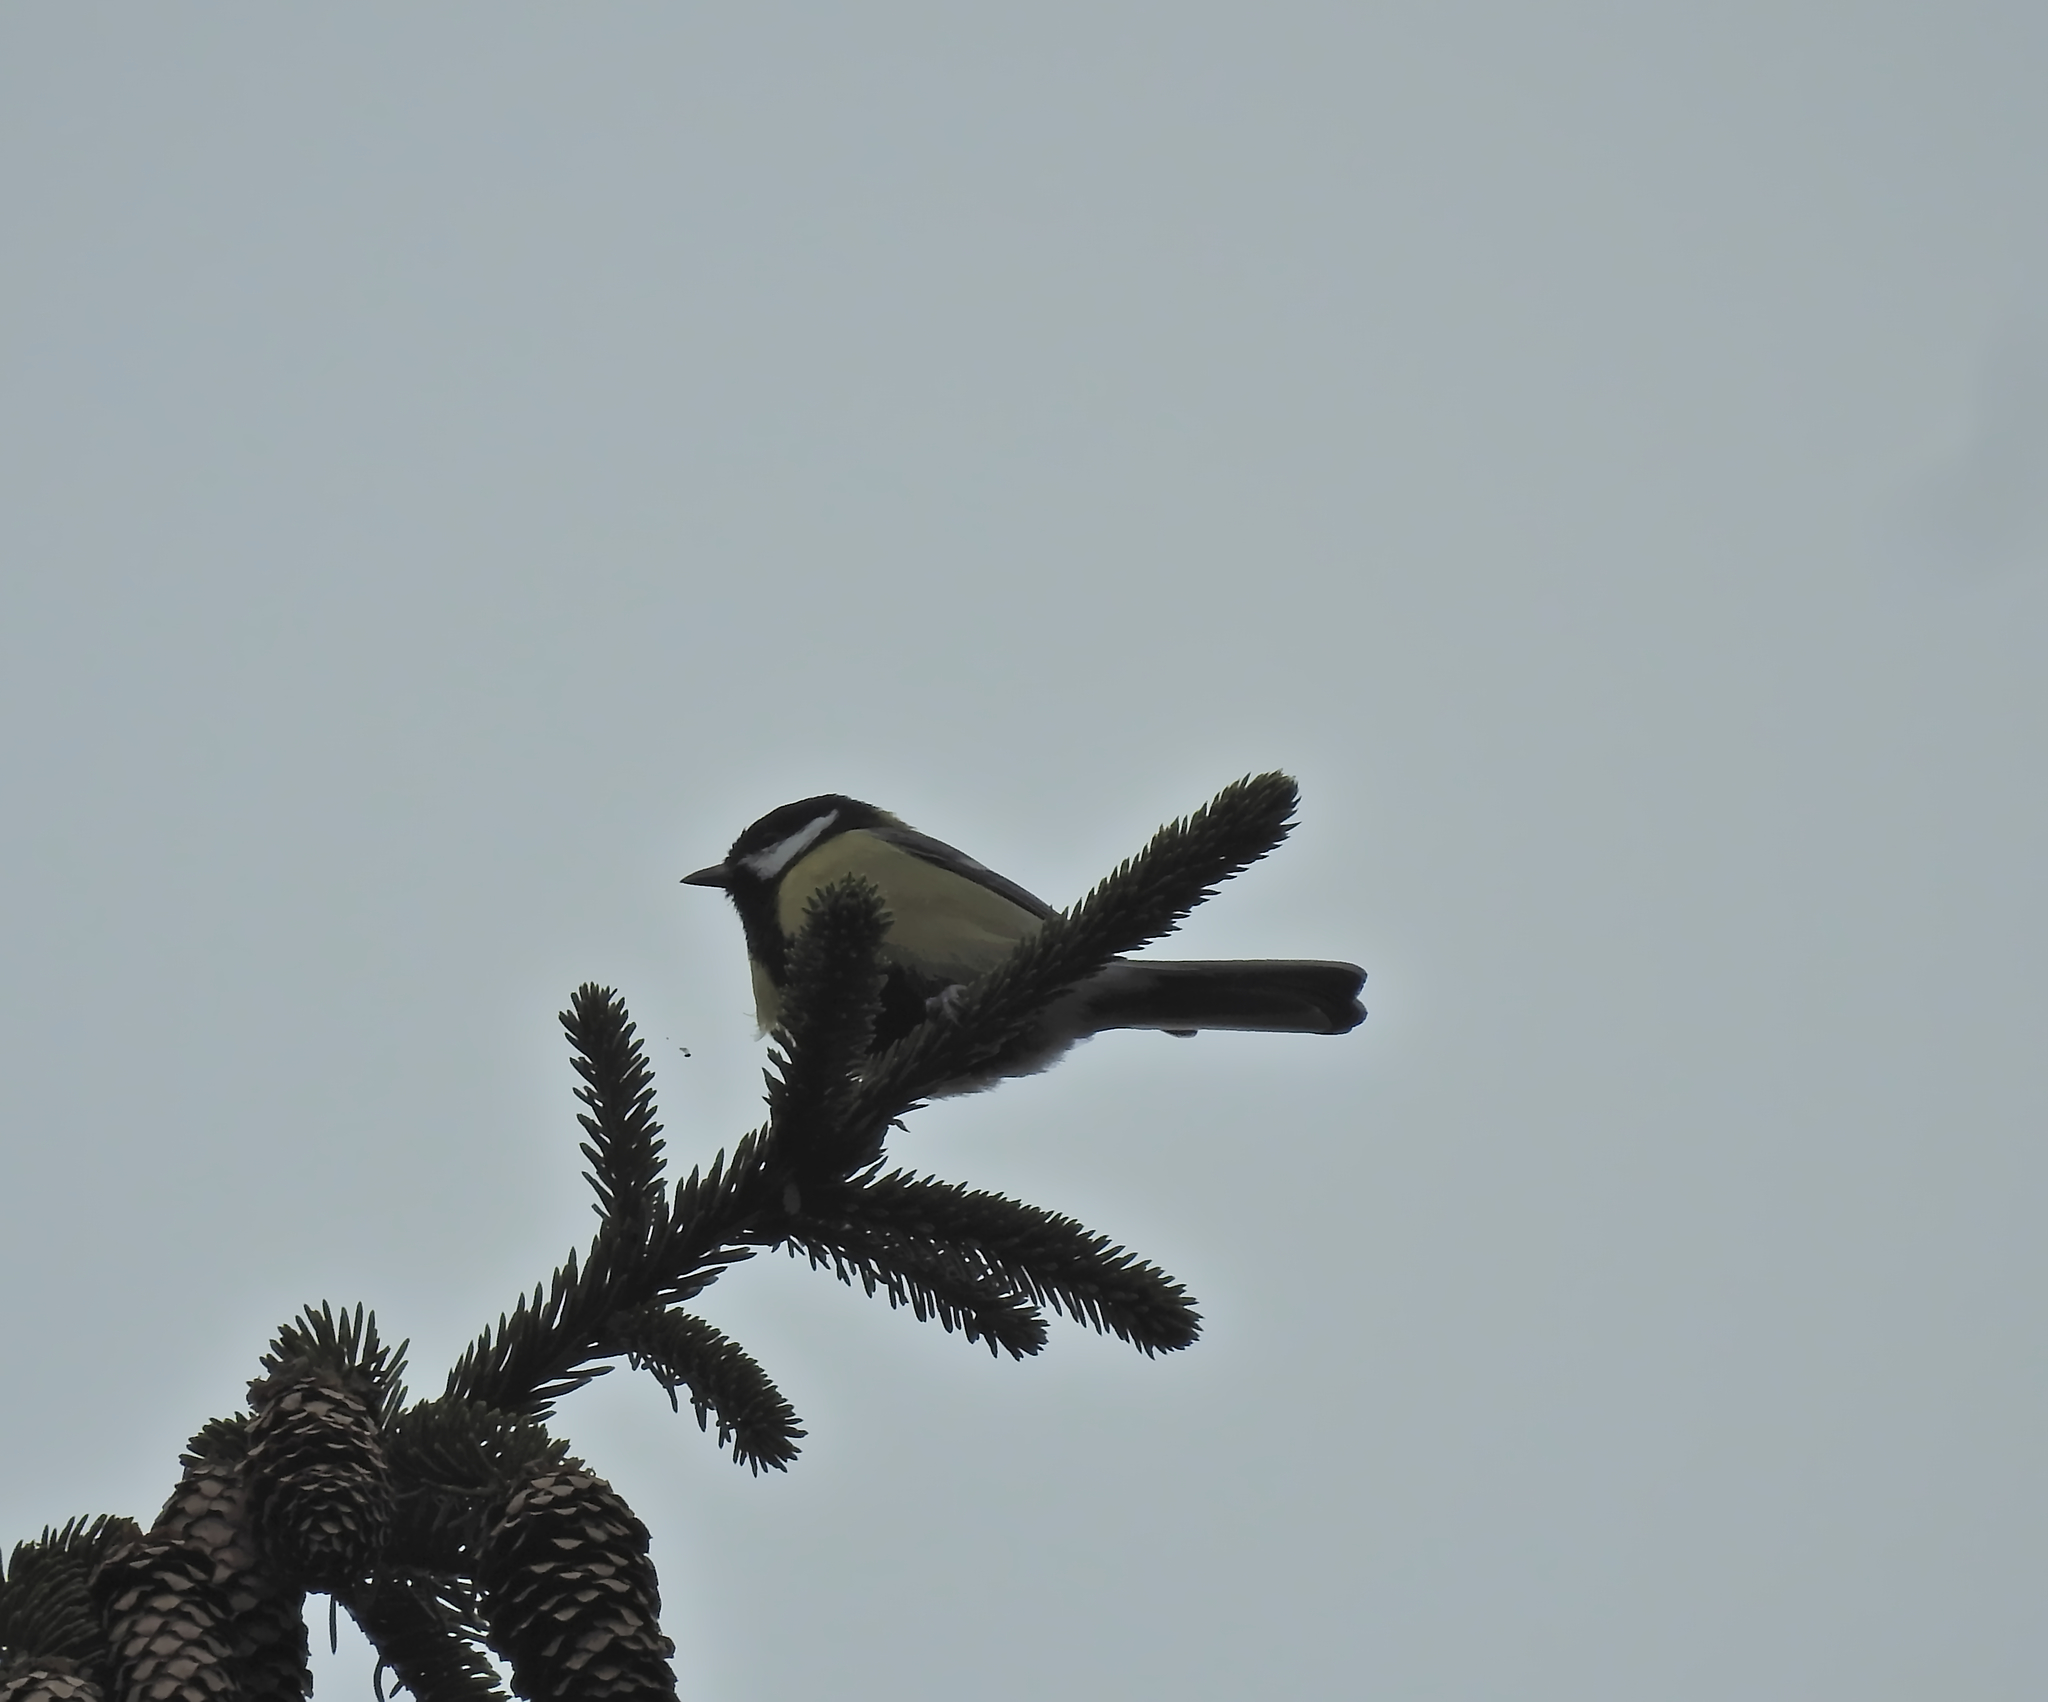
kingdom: Animalia
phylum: Chordata
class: Aves
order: Passeriformes
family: Paridae
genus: Parus
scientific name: Parus major
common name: Great tit
